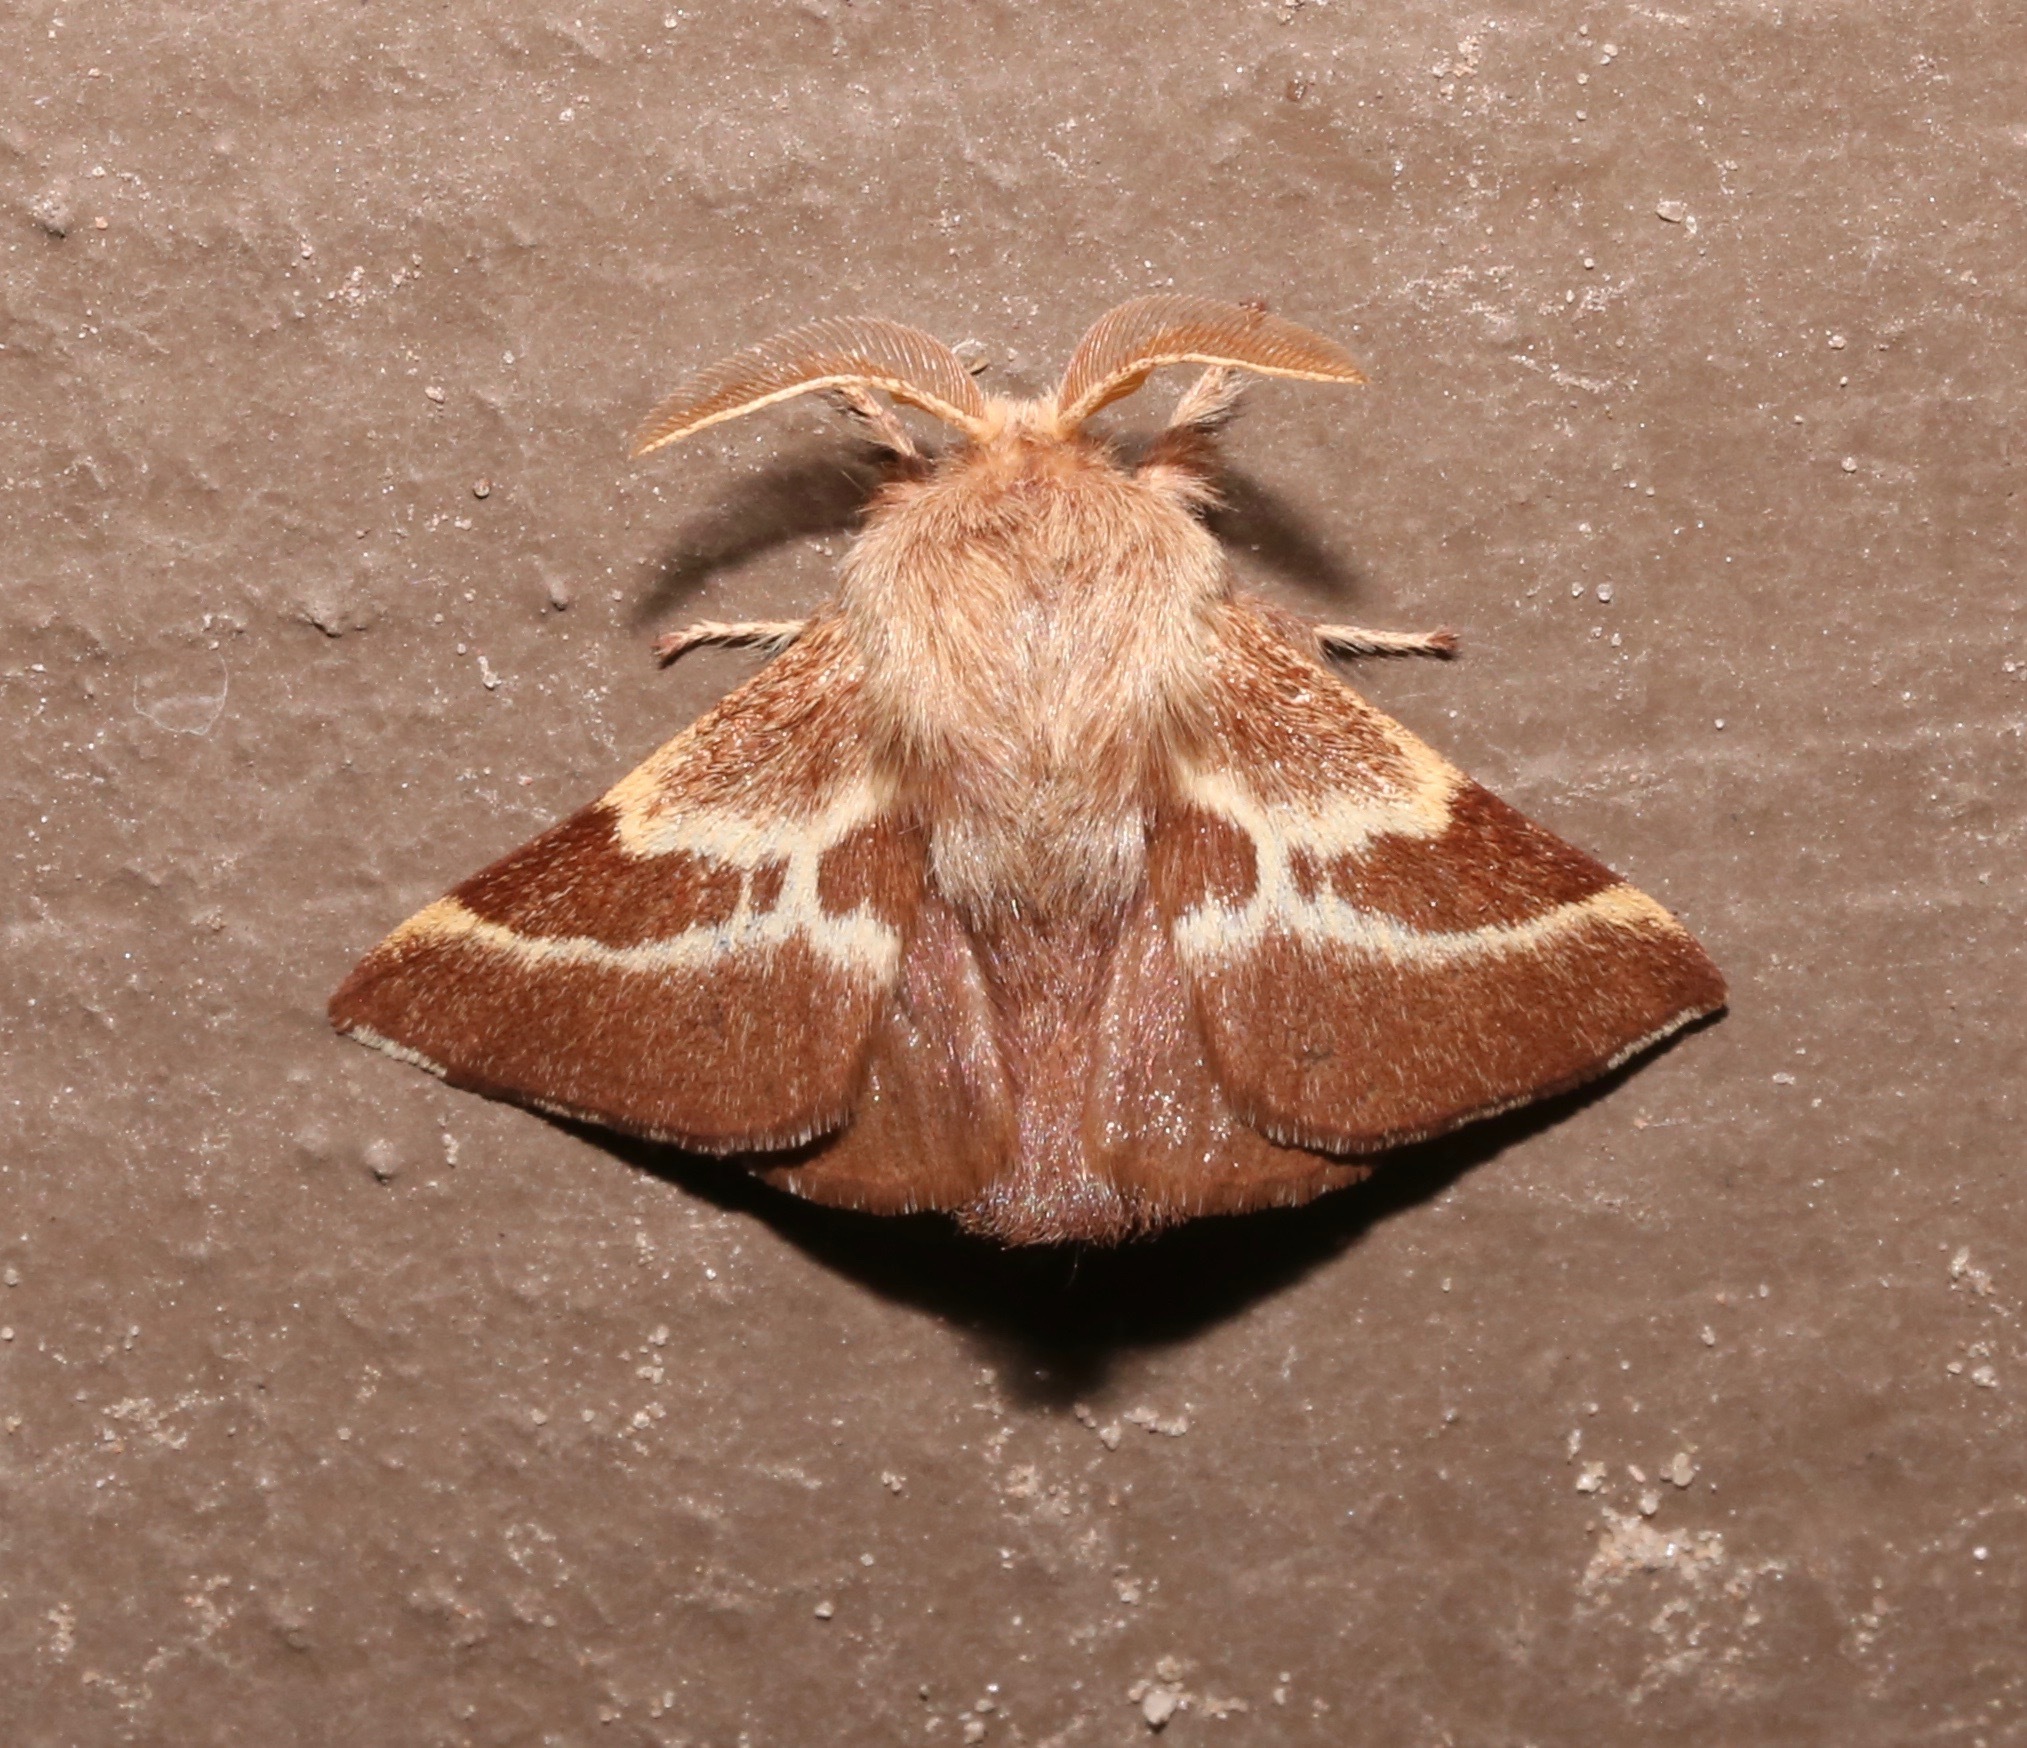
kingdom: Animalia
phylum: Arthropoda
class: Insecta
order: Lepidoptera
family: Lasiocampidae
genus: Malacosoma
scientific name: Malacosoma californica
